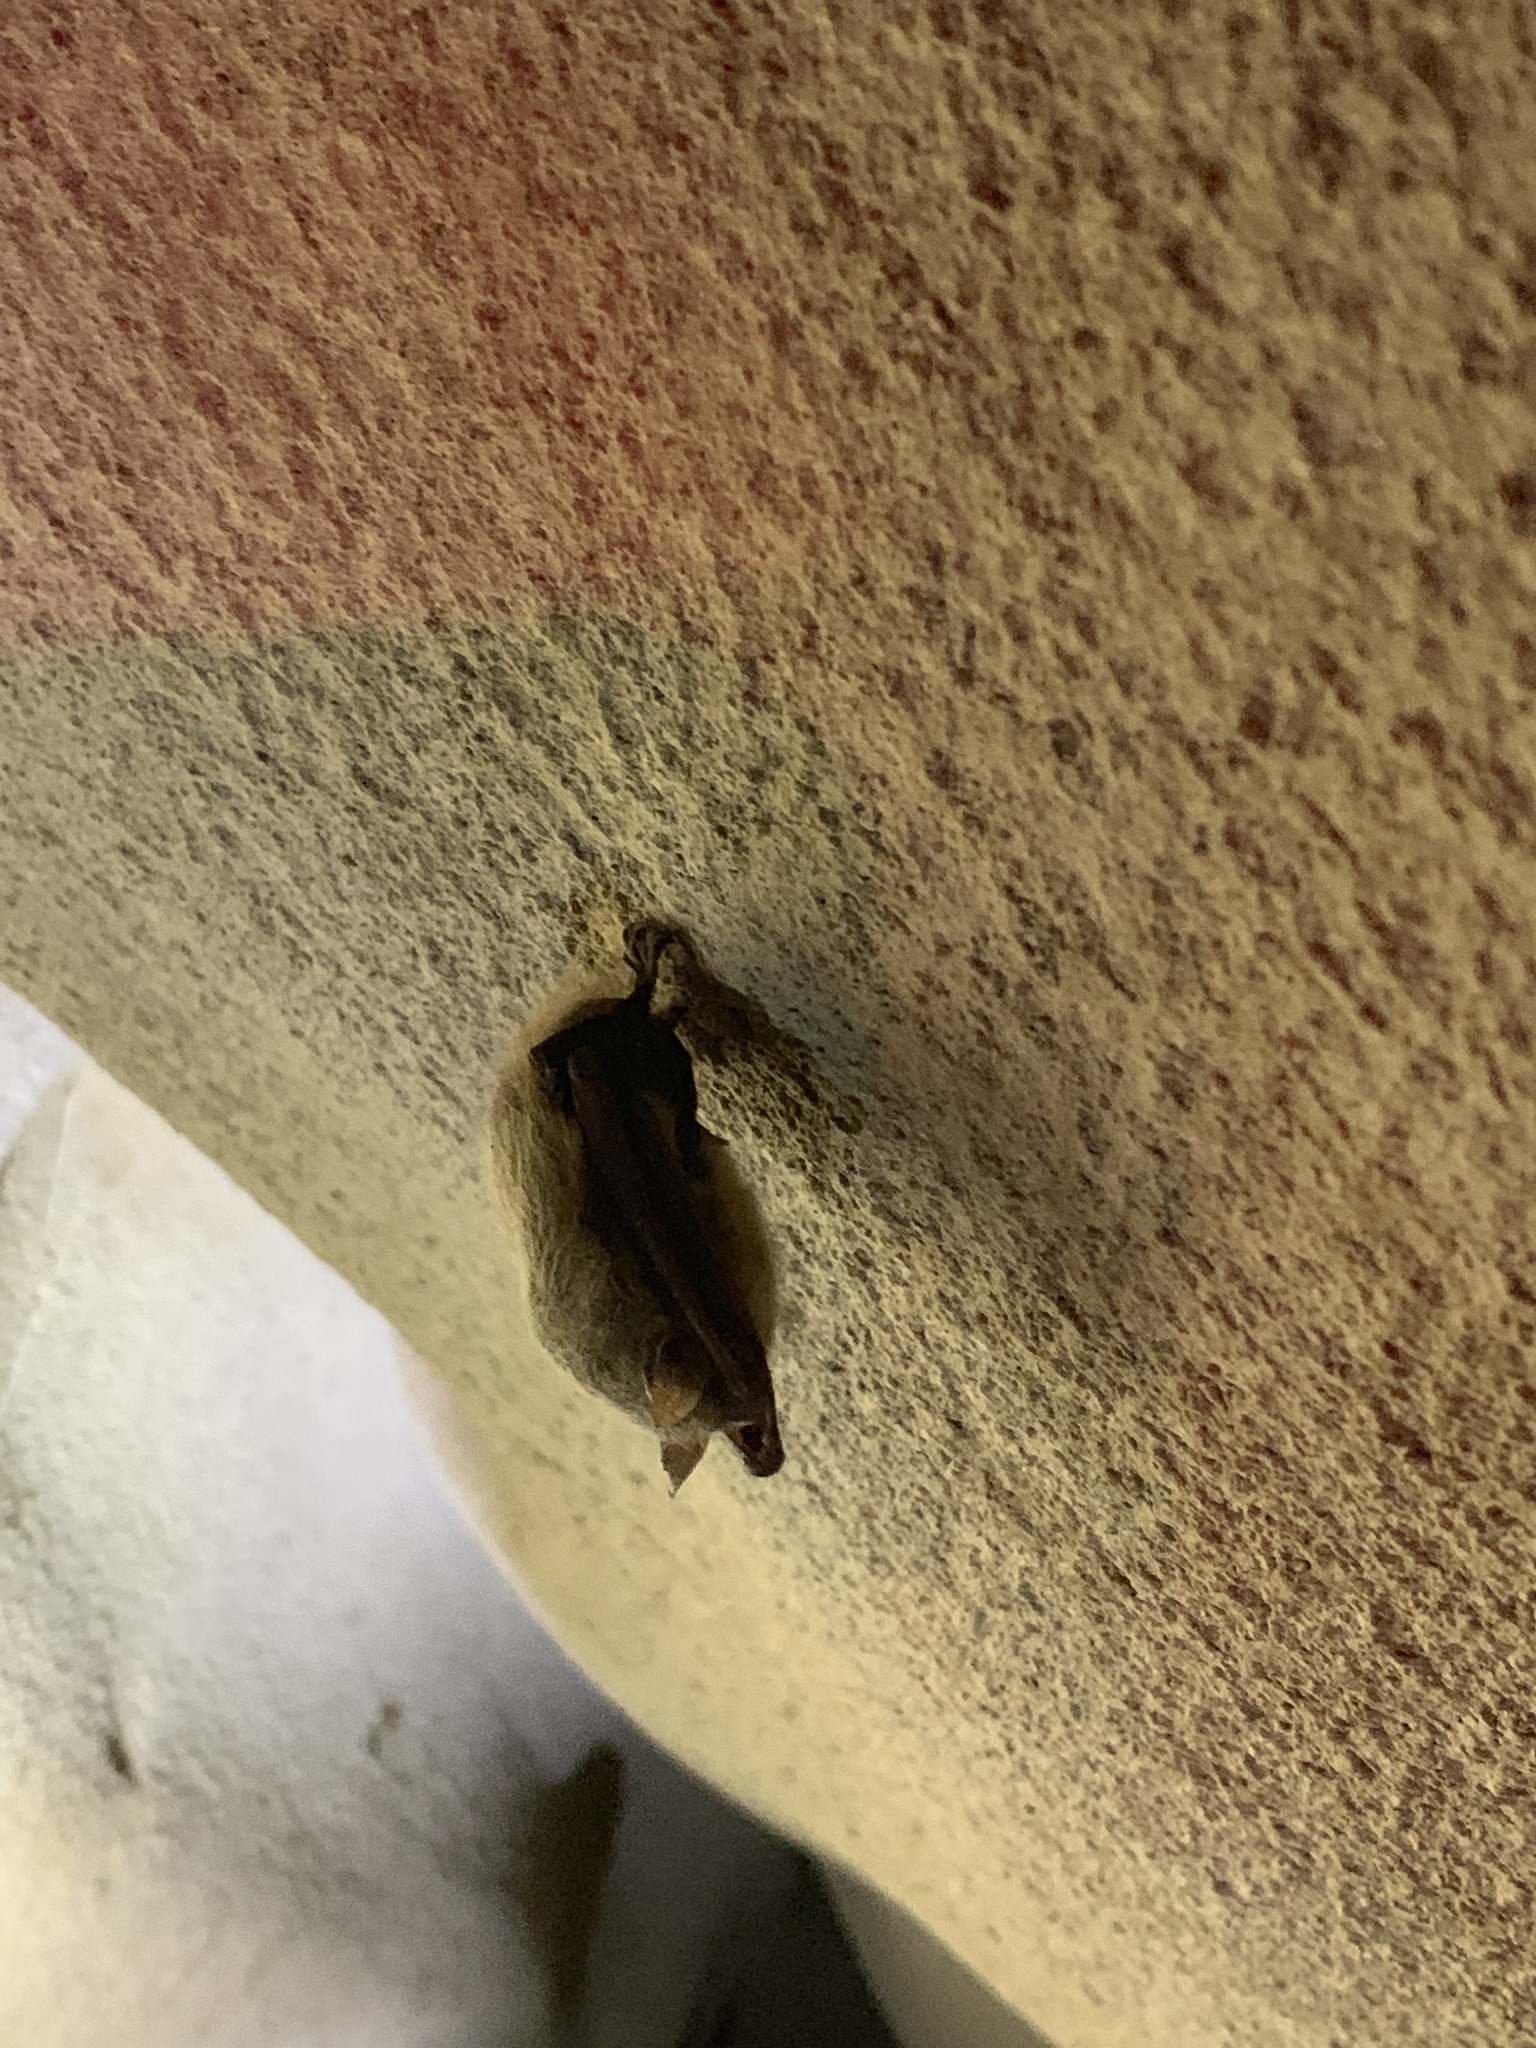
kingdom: Animalia
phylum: Chordata
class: Mammalia
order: Chiroptera
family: Vespertilionidae
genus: Perimyotis
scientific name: Perimyotis subflavus
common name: Eastern pipistrelle
